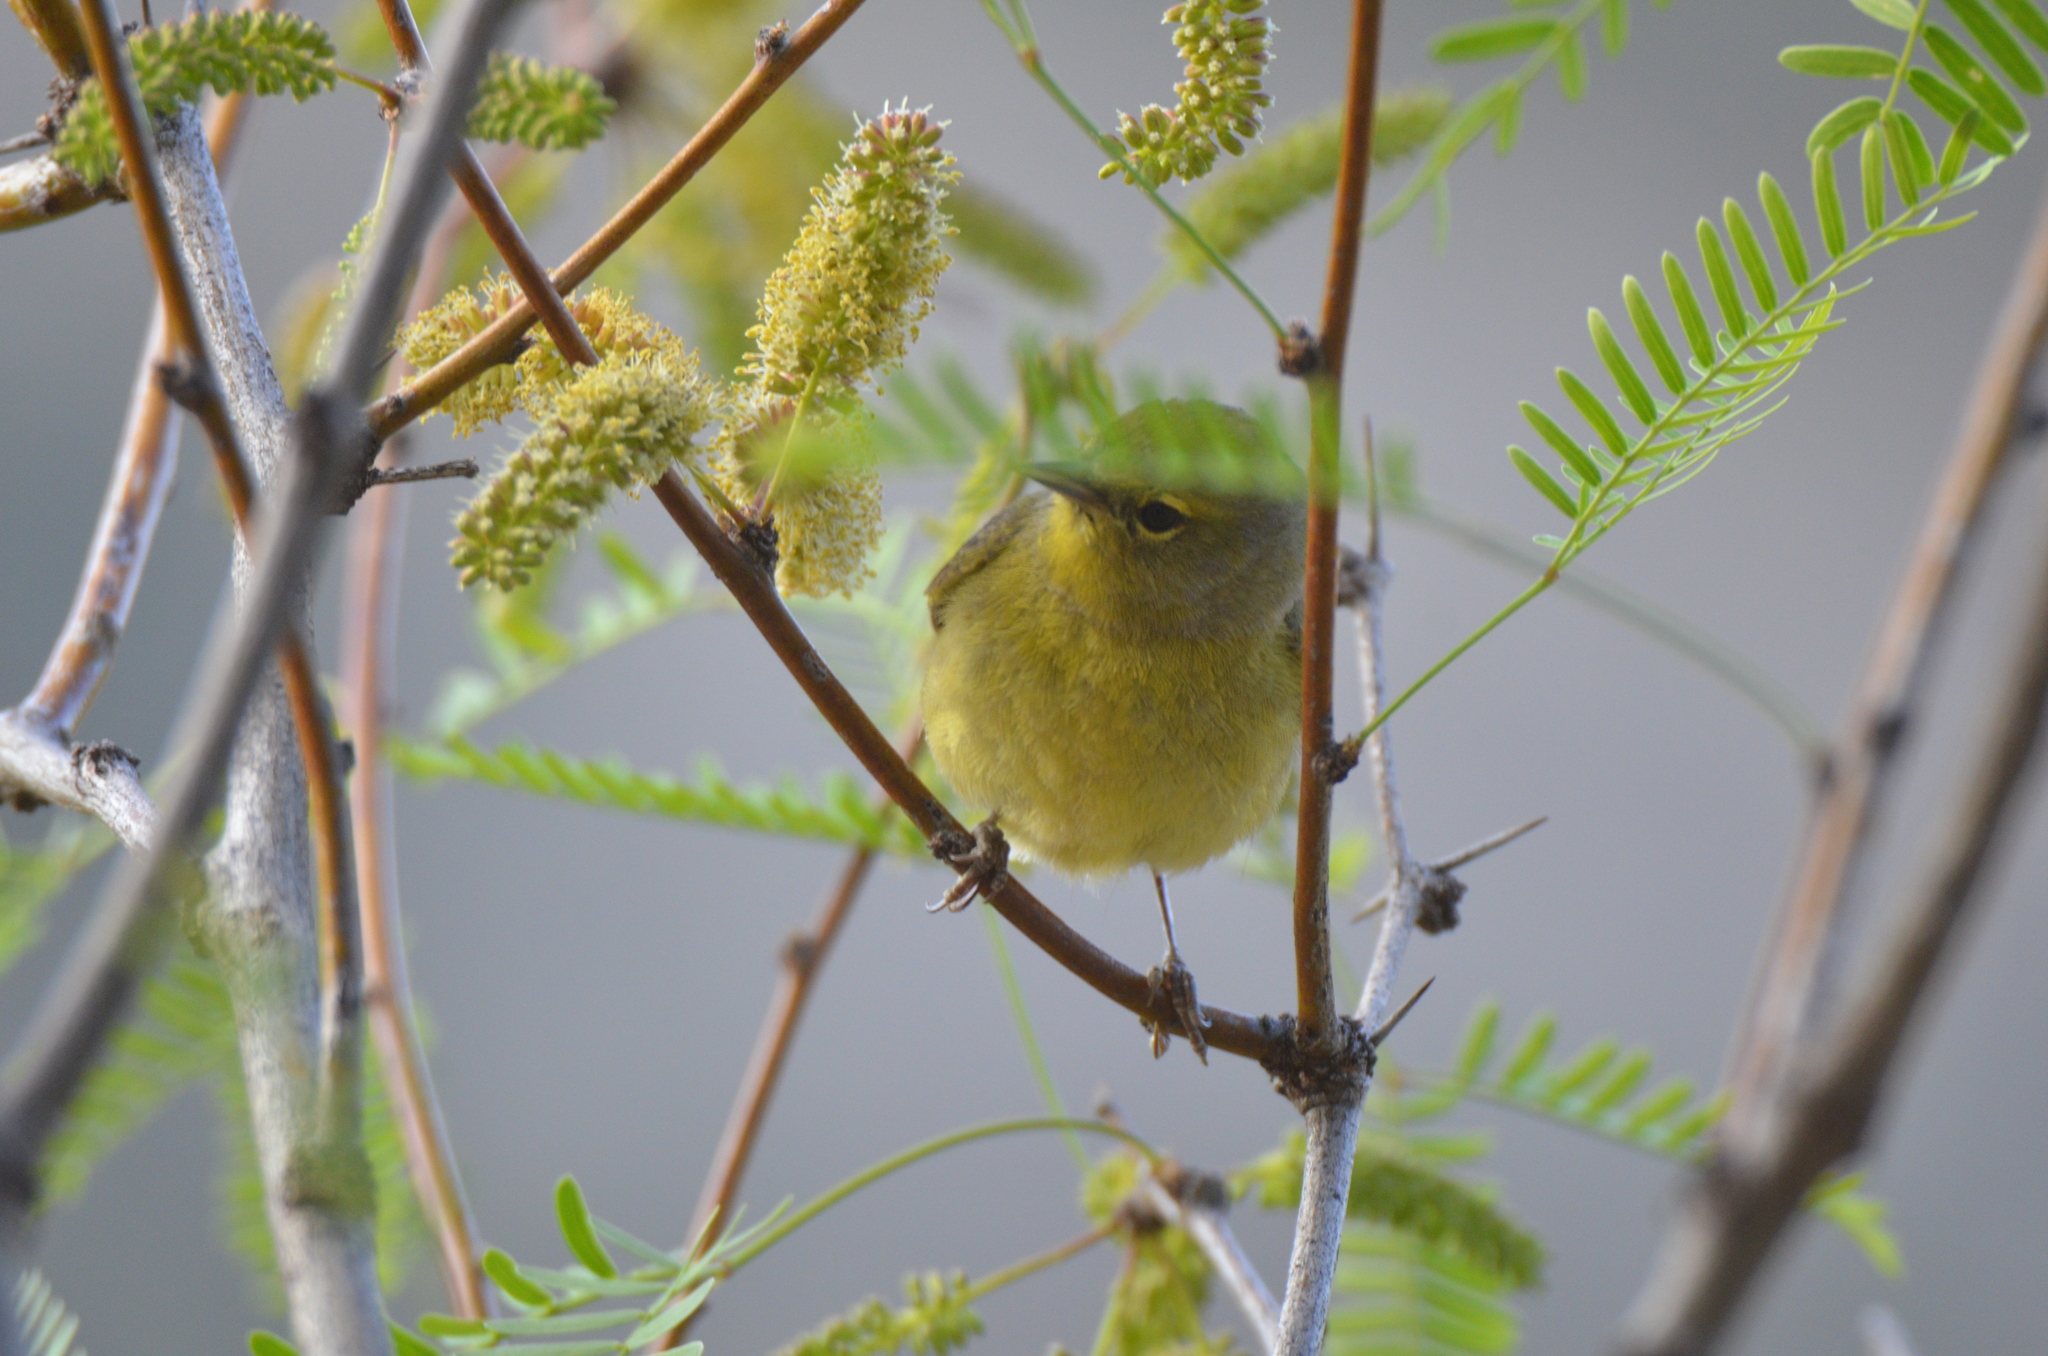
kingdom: Animalia
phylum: Chordata
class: Aves
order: Passeriformes
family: Parulidae
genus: Leiothlypis
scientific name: Leiothlypis celata
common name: Orange-crowned warbler
